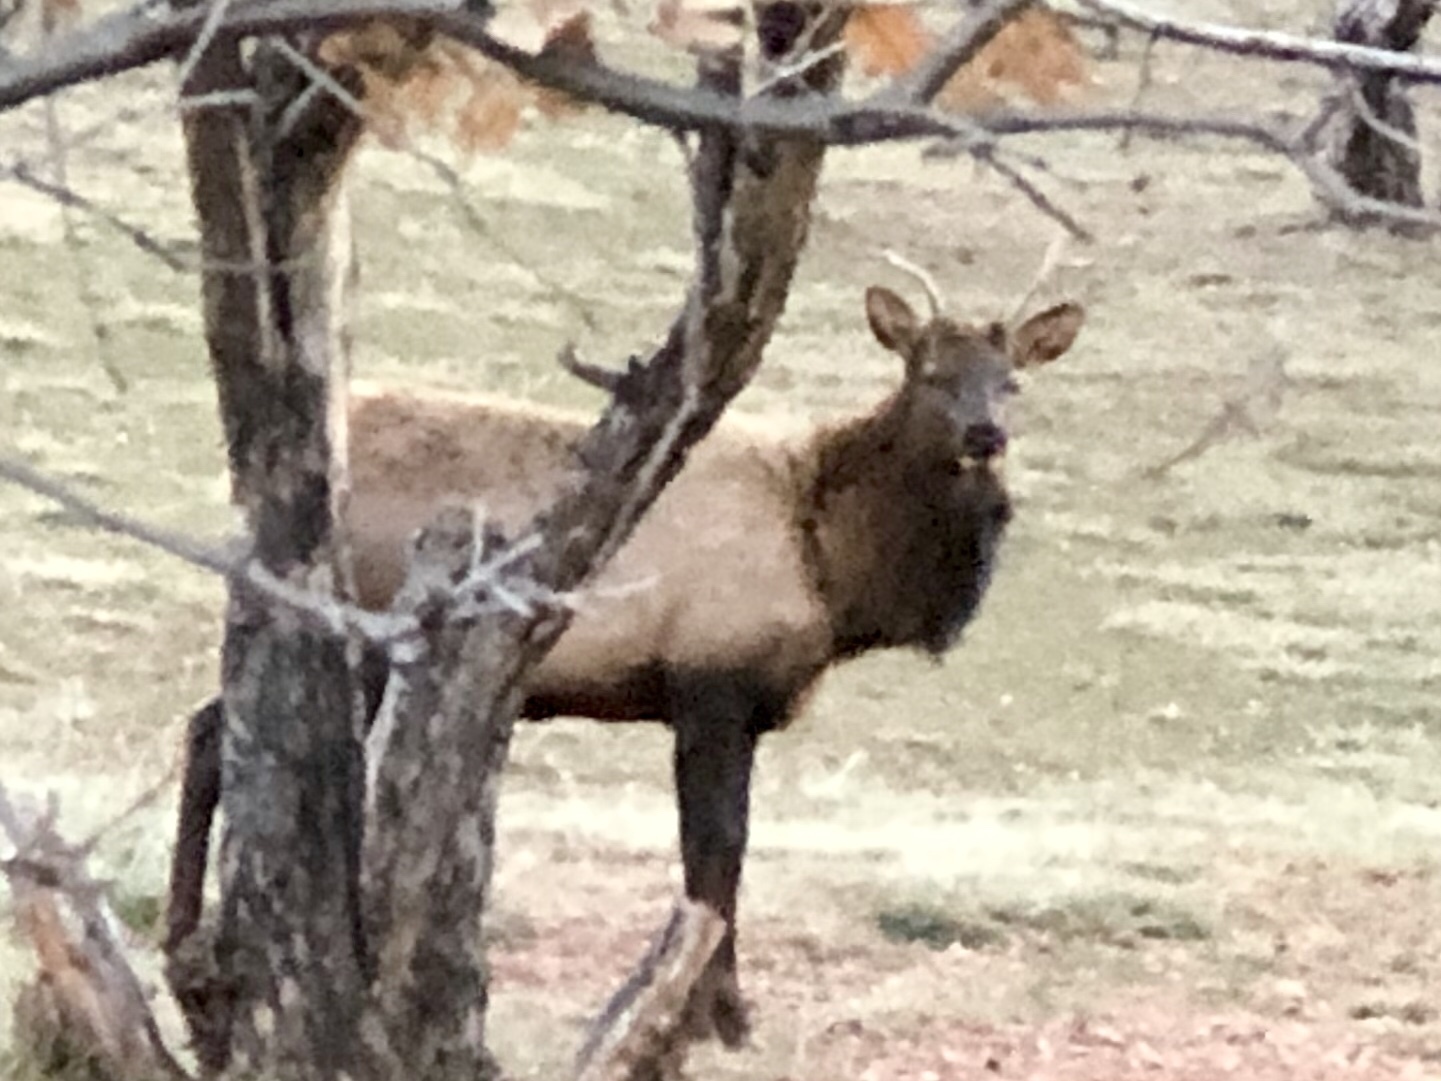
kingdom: Animalia
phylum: Chordata
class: Mammalia
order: Artiodactyla
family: Cervidae
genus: Cervus
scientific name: Cervus elaphus
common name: Red deer
